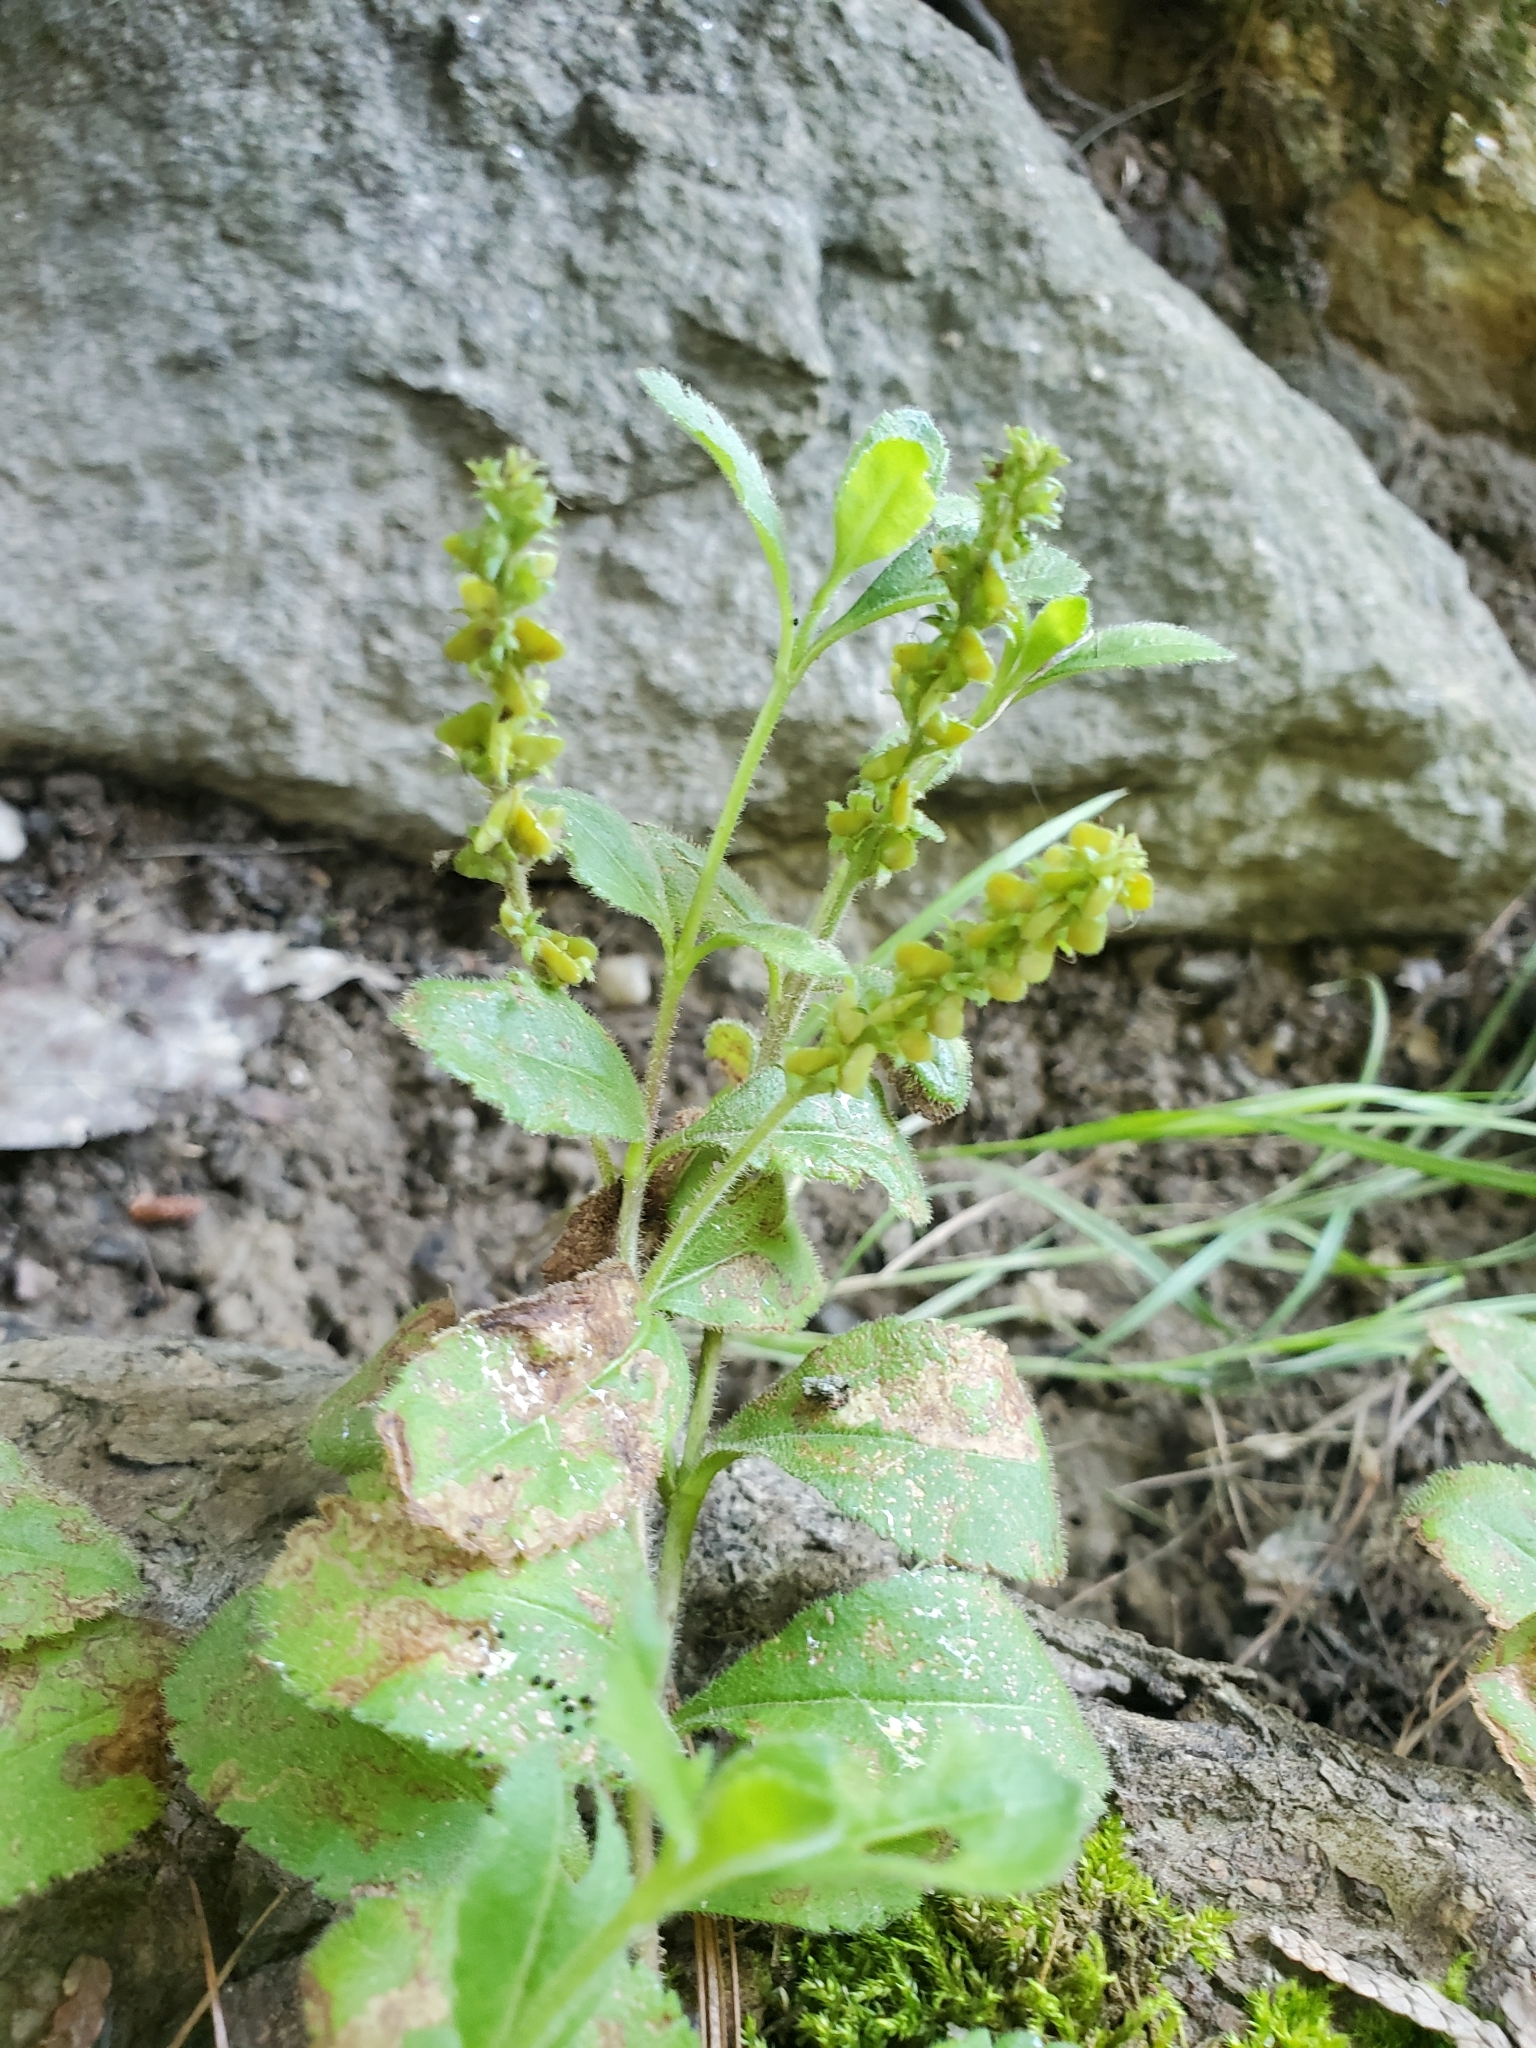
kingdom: Plantae
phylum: Tracheophyta
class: Magnoliopsida
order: Lamiales
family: Plantaginaceae
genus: Veronica
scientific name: Veronica officinalis
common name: Common speedwell
